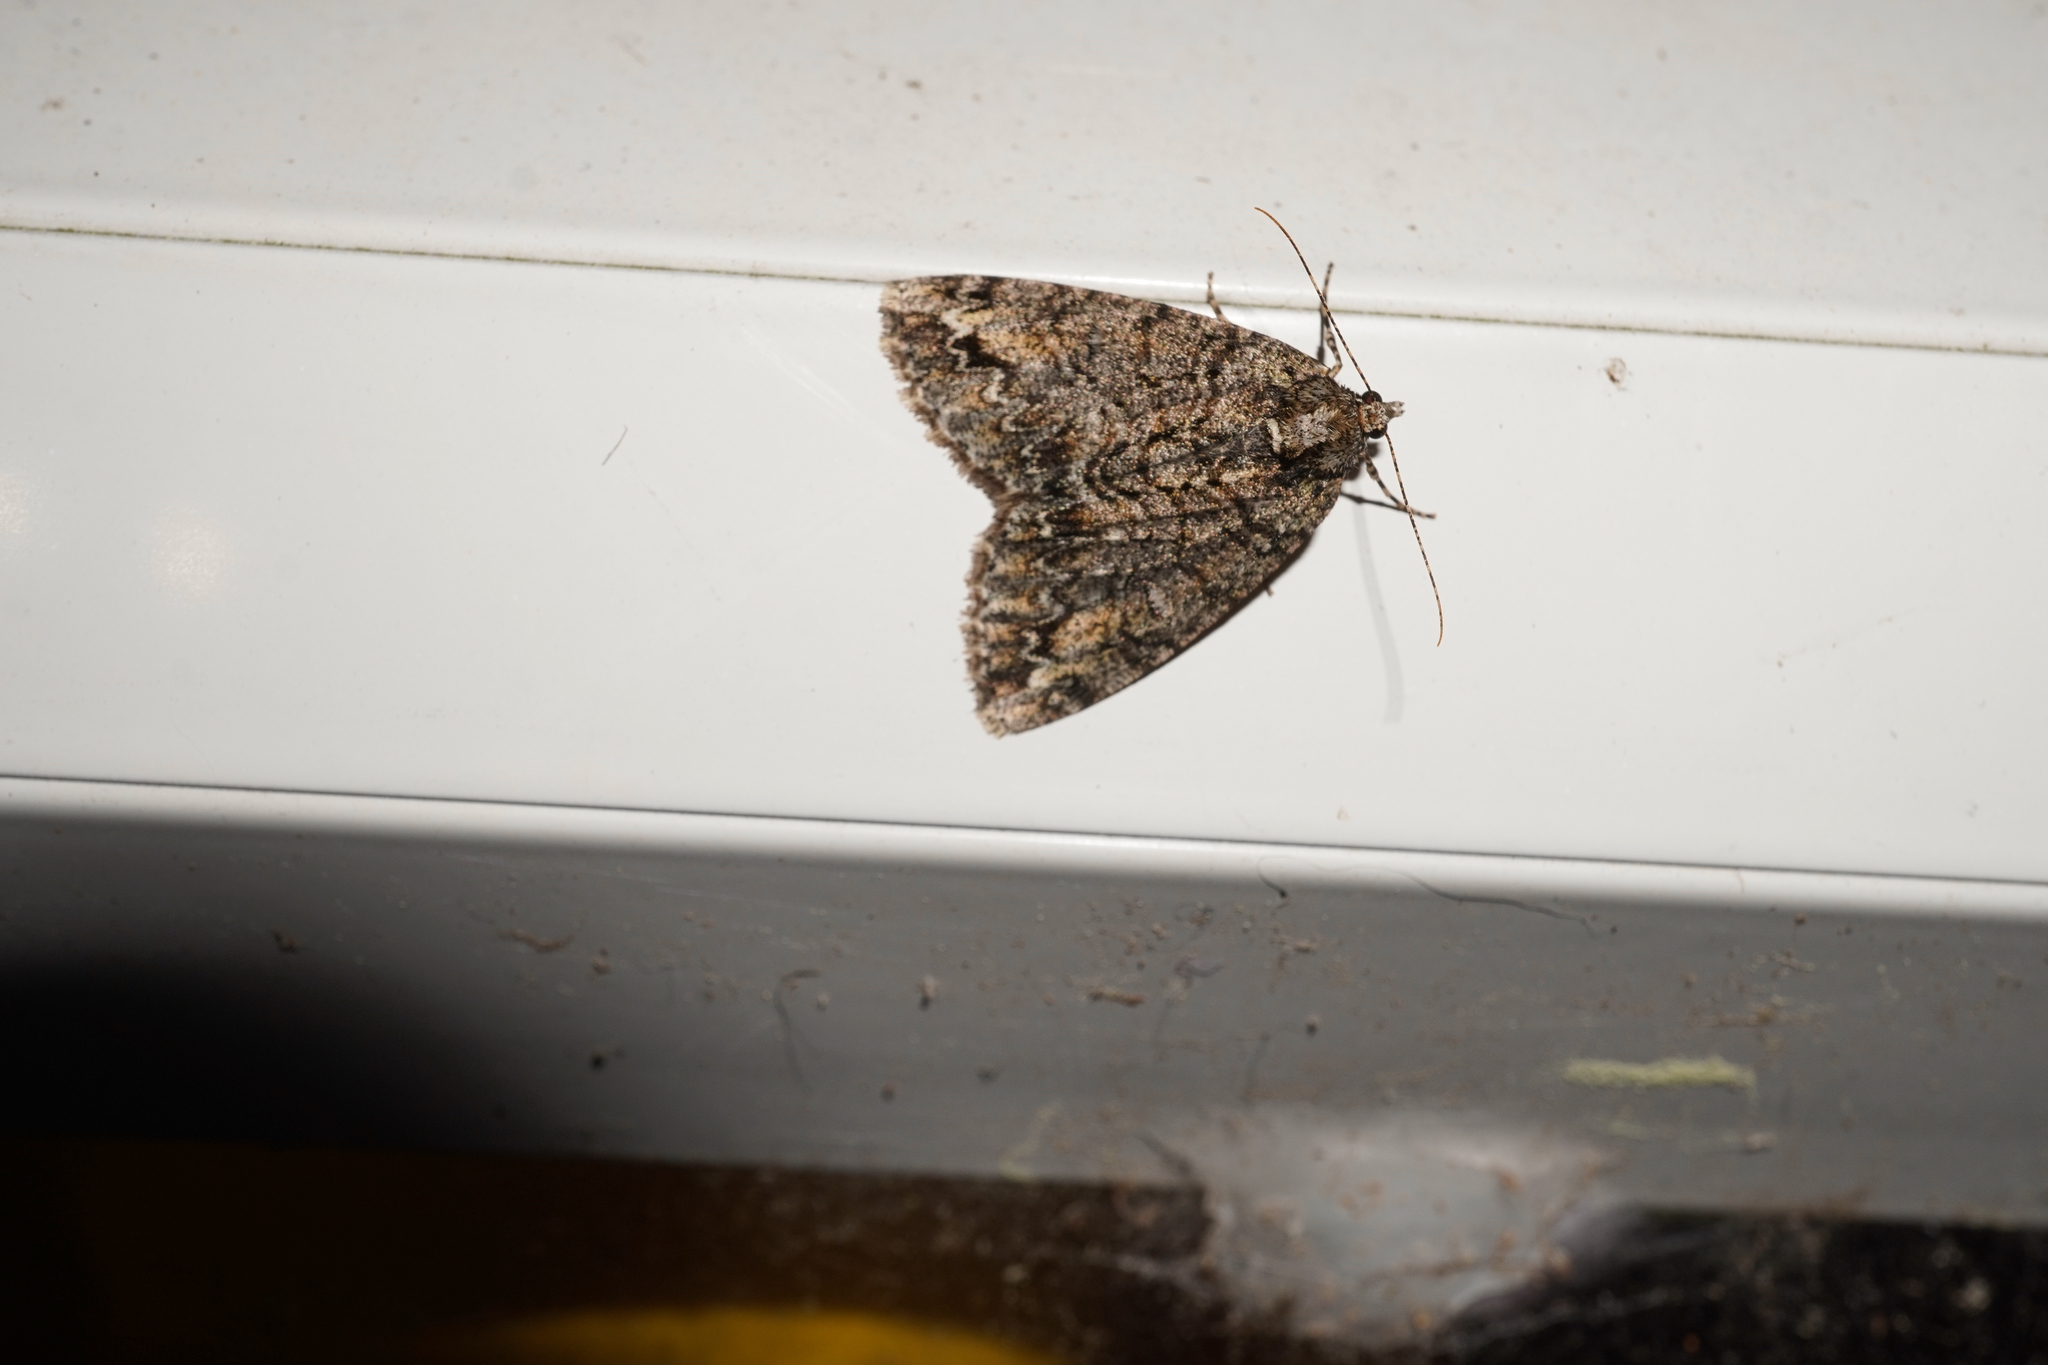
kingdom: Animalia
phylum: Arthropoda
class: Insecta
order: Lepidoptera
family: Geometridae
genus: Pseudocoremia
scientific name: Pseudocoremia suavis
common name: Common forest looper
